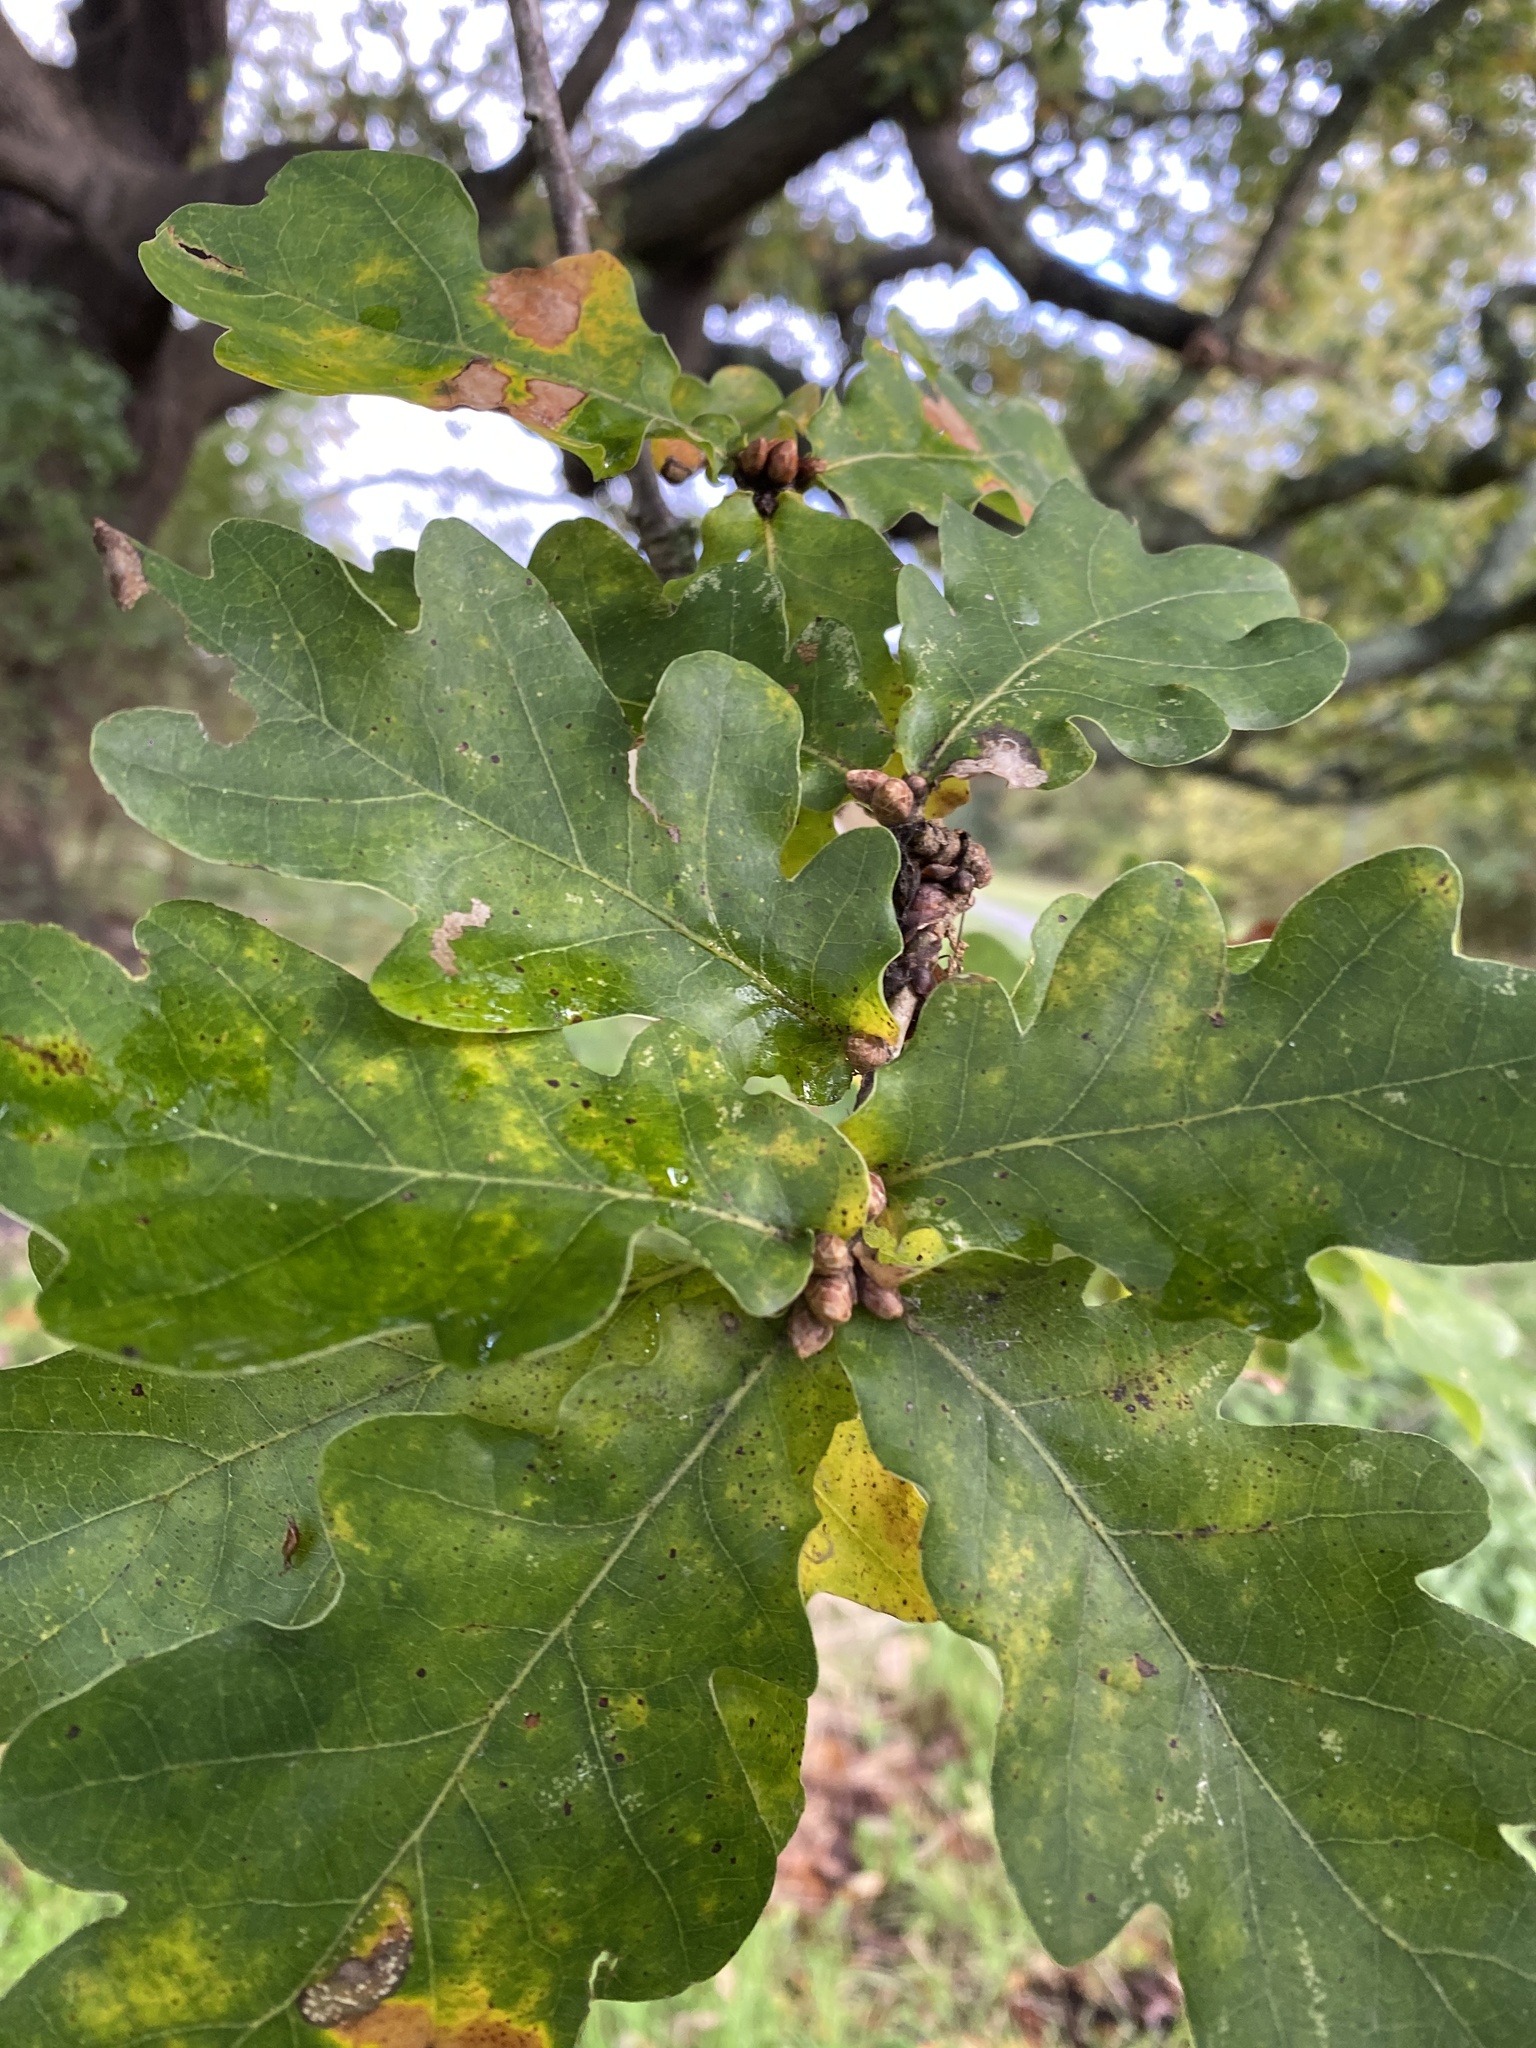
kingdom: Plantae
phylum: Tracheophyta
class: Magnoliopsida
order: Fagales
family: Fagaceae
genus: Quercus
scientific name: Quercus robur
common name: Pedunculate oak
